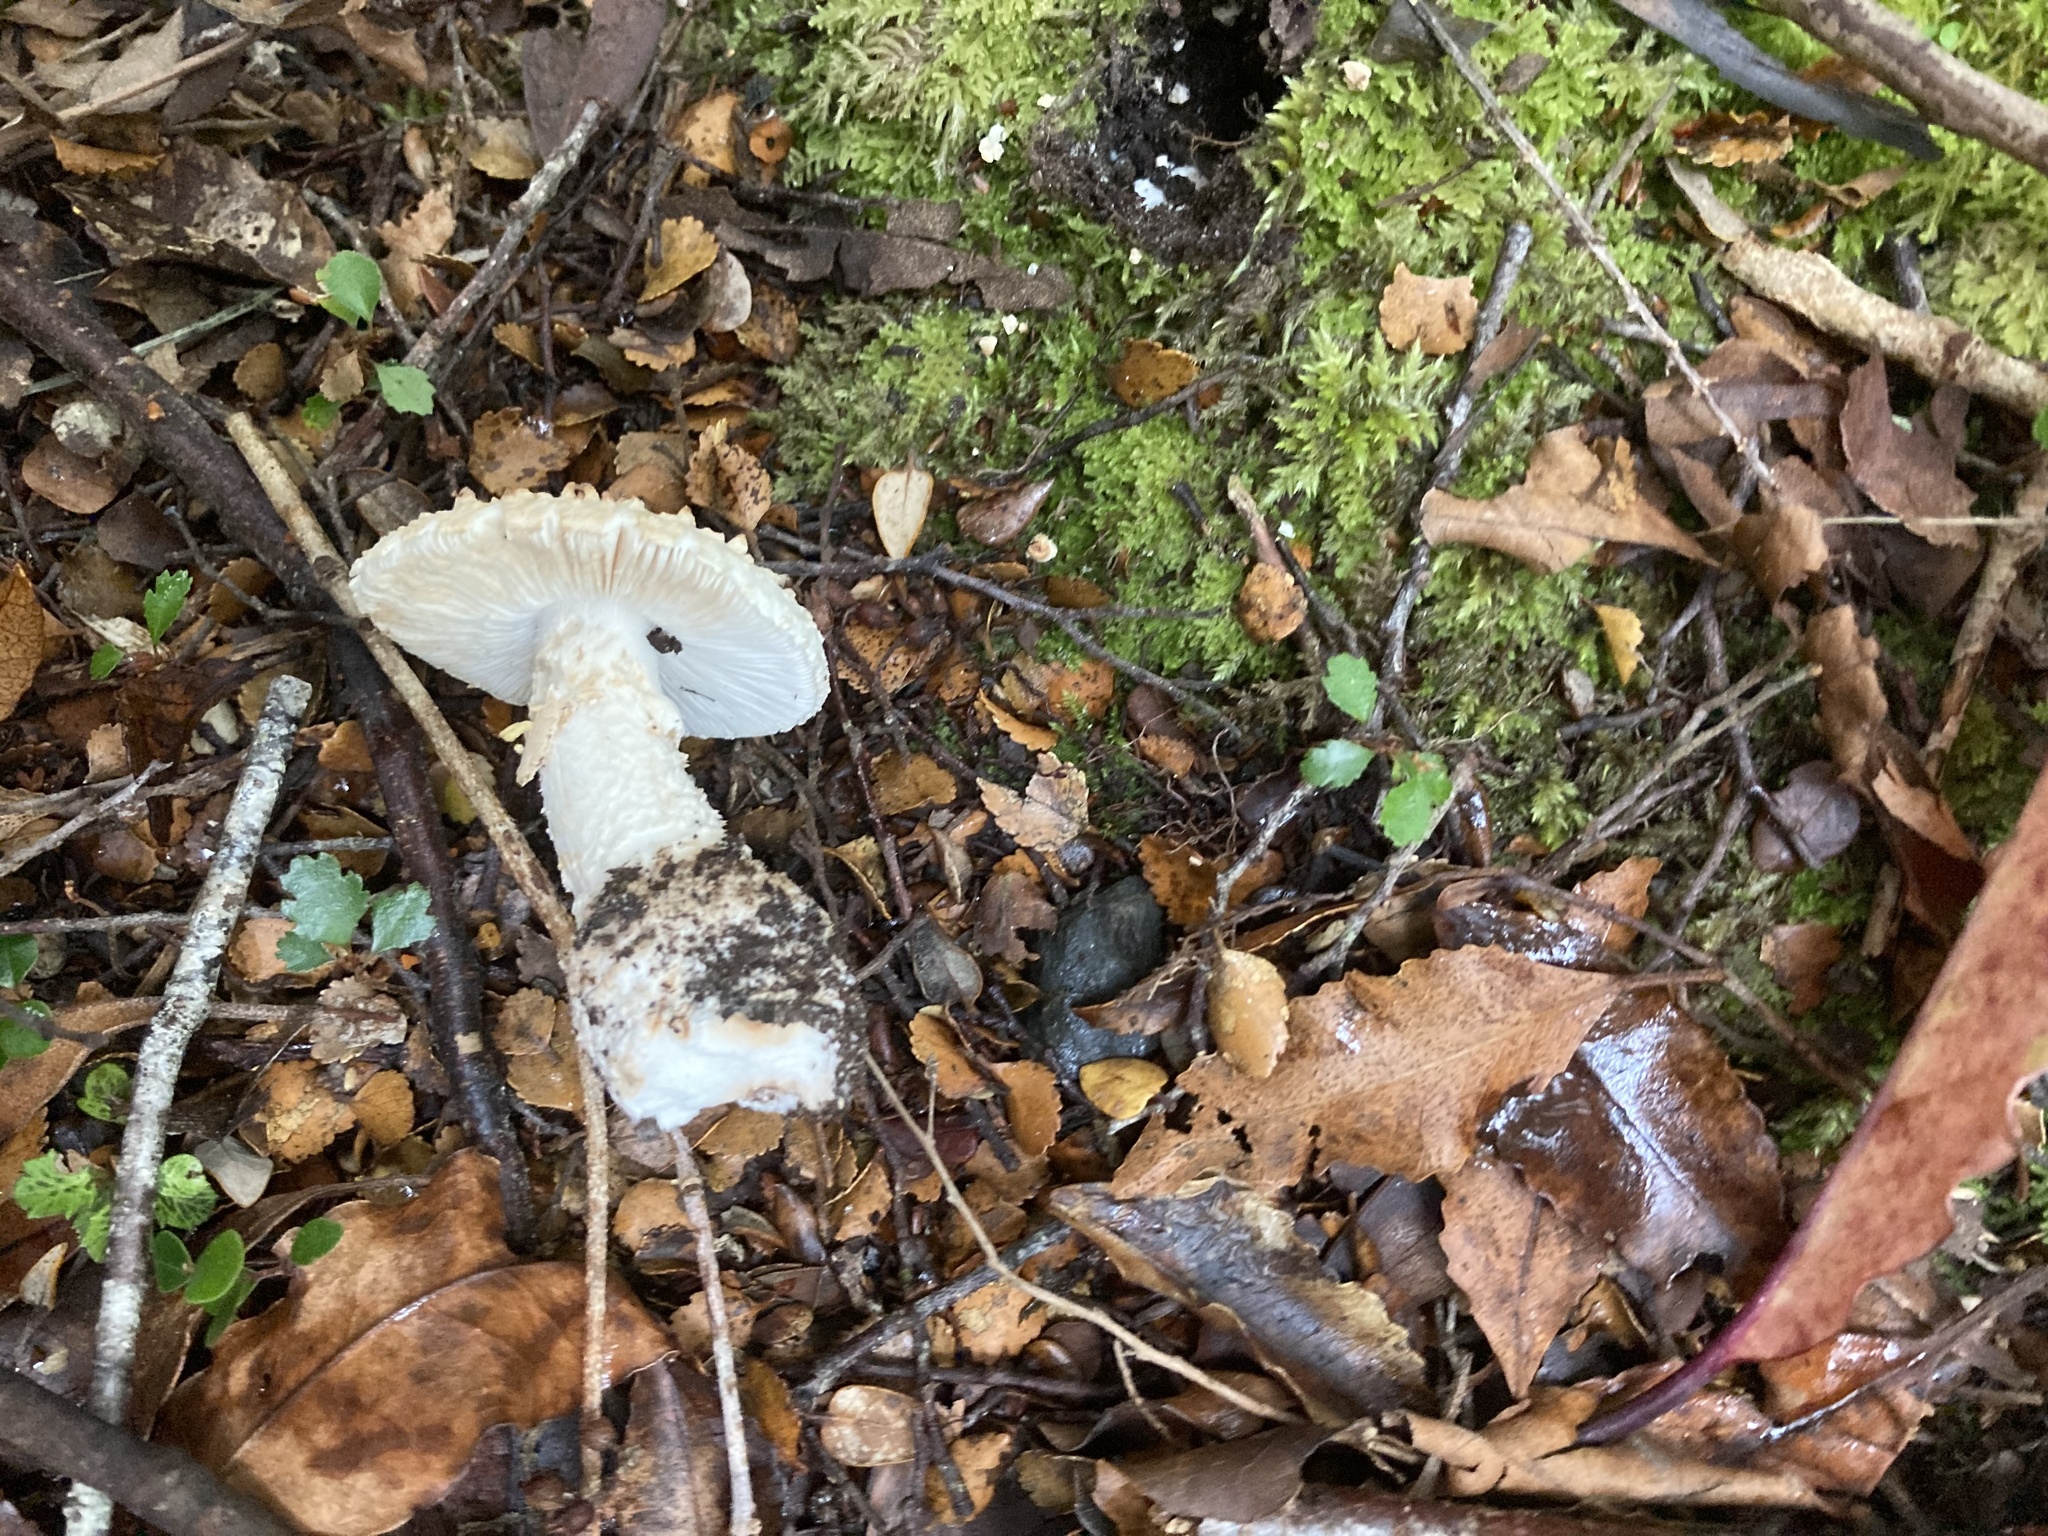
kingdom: Fungi
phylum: Basidiomycota
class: Agaricomycetes
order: Agaricales
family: Amanitaceae
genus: Amanita
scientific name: Amanita pareparina
